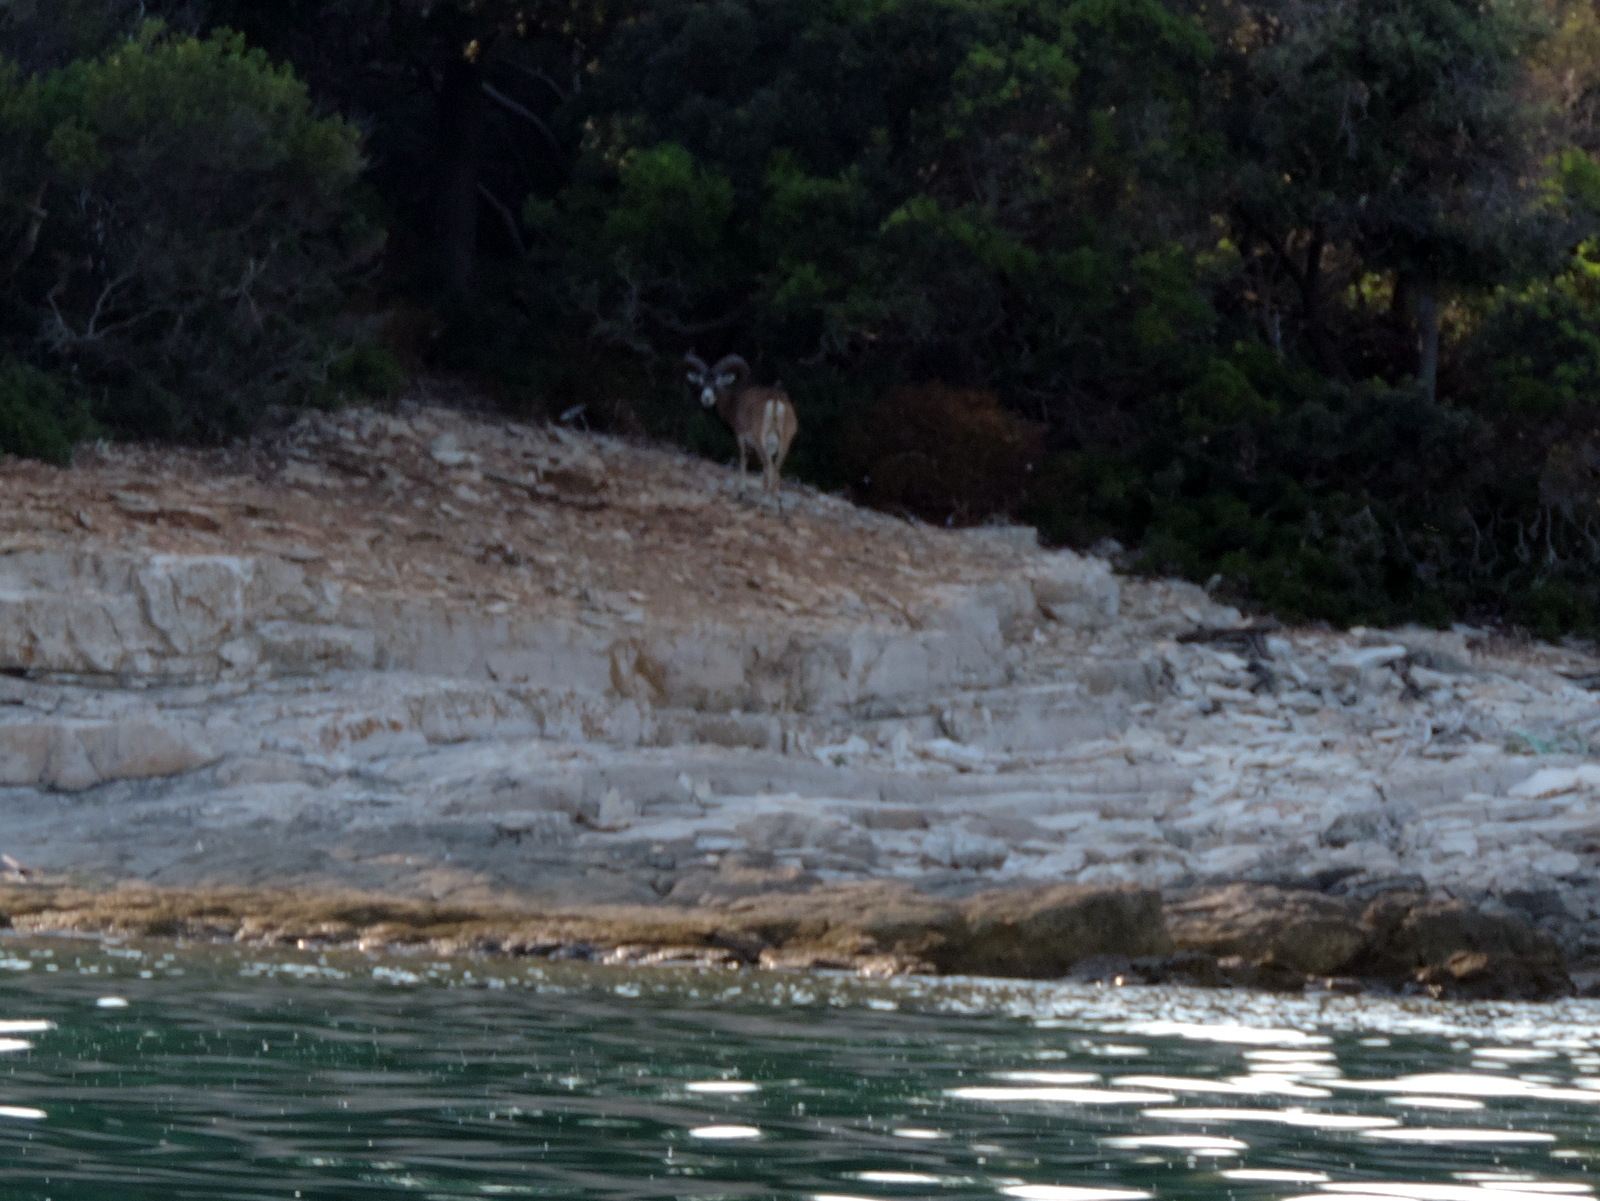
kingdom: Animalia
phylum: Chordata
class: Mammalia
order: Artiodactyla
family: Bovidae
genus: Ovis
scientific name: Ovis aries
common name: Domestic sheep
